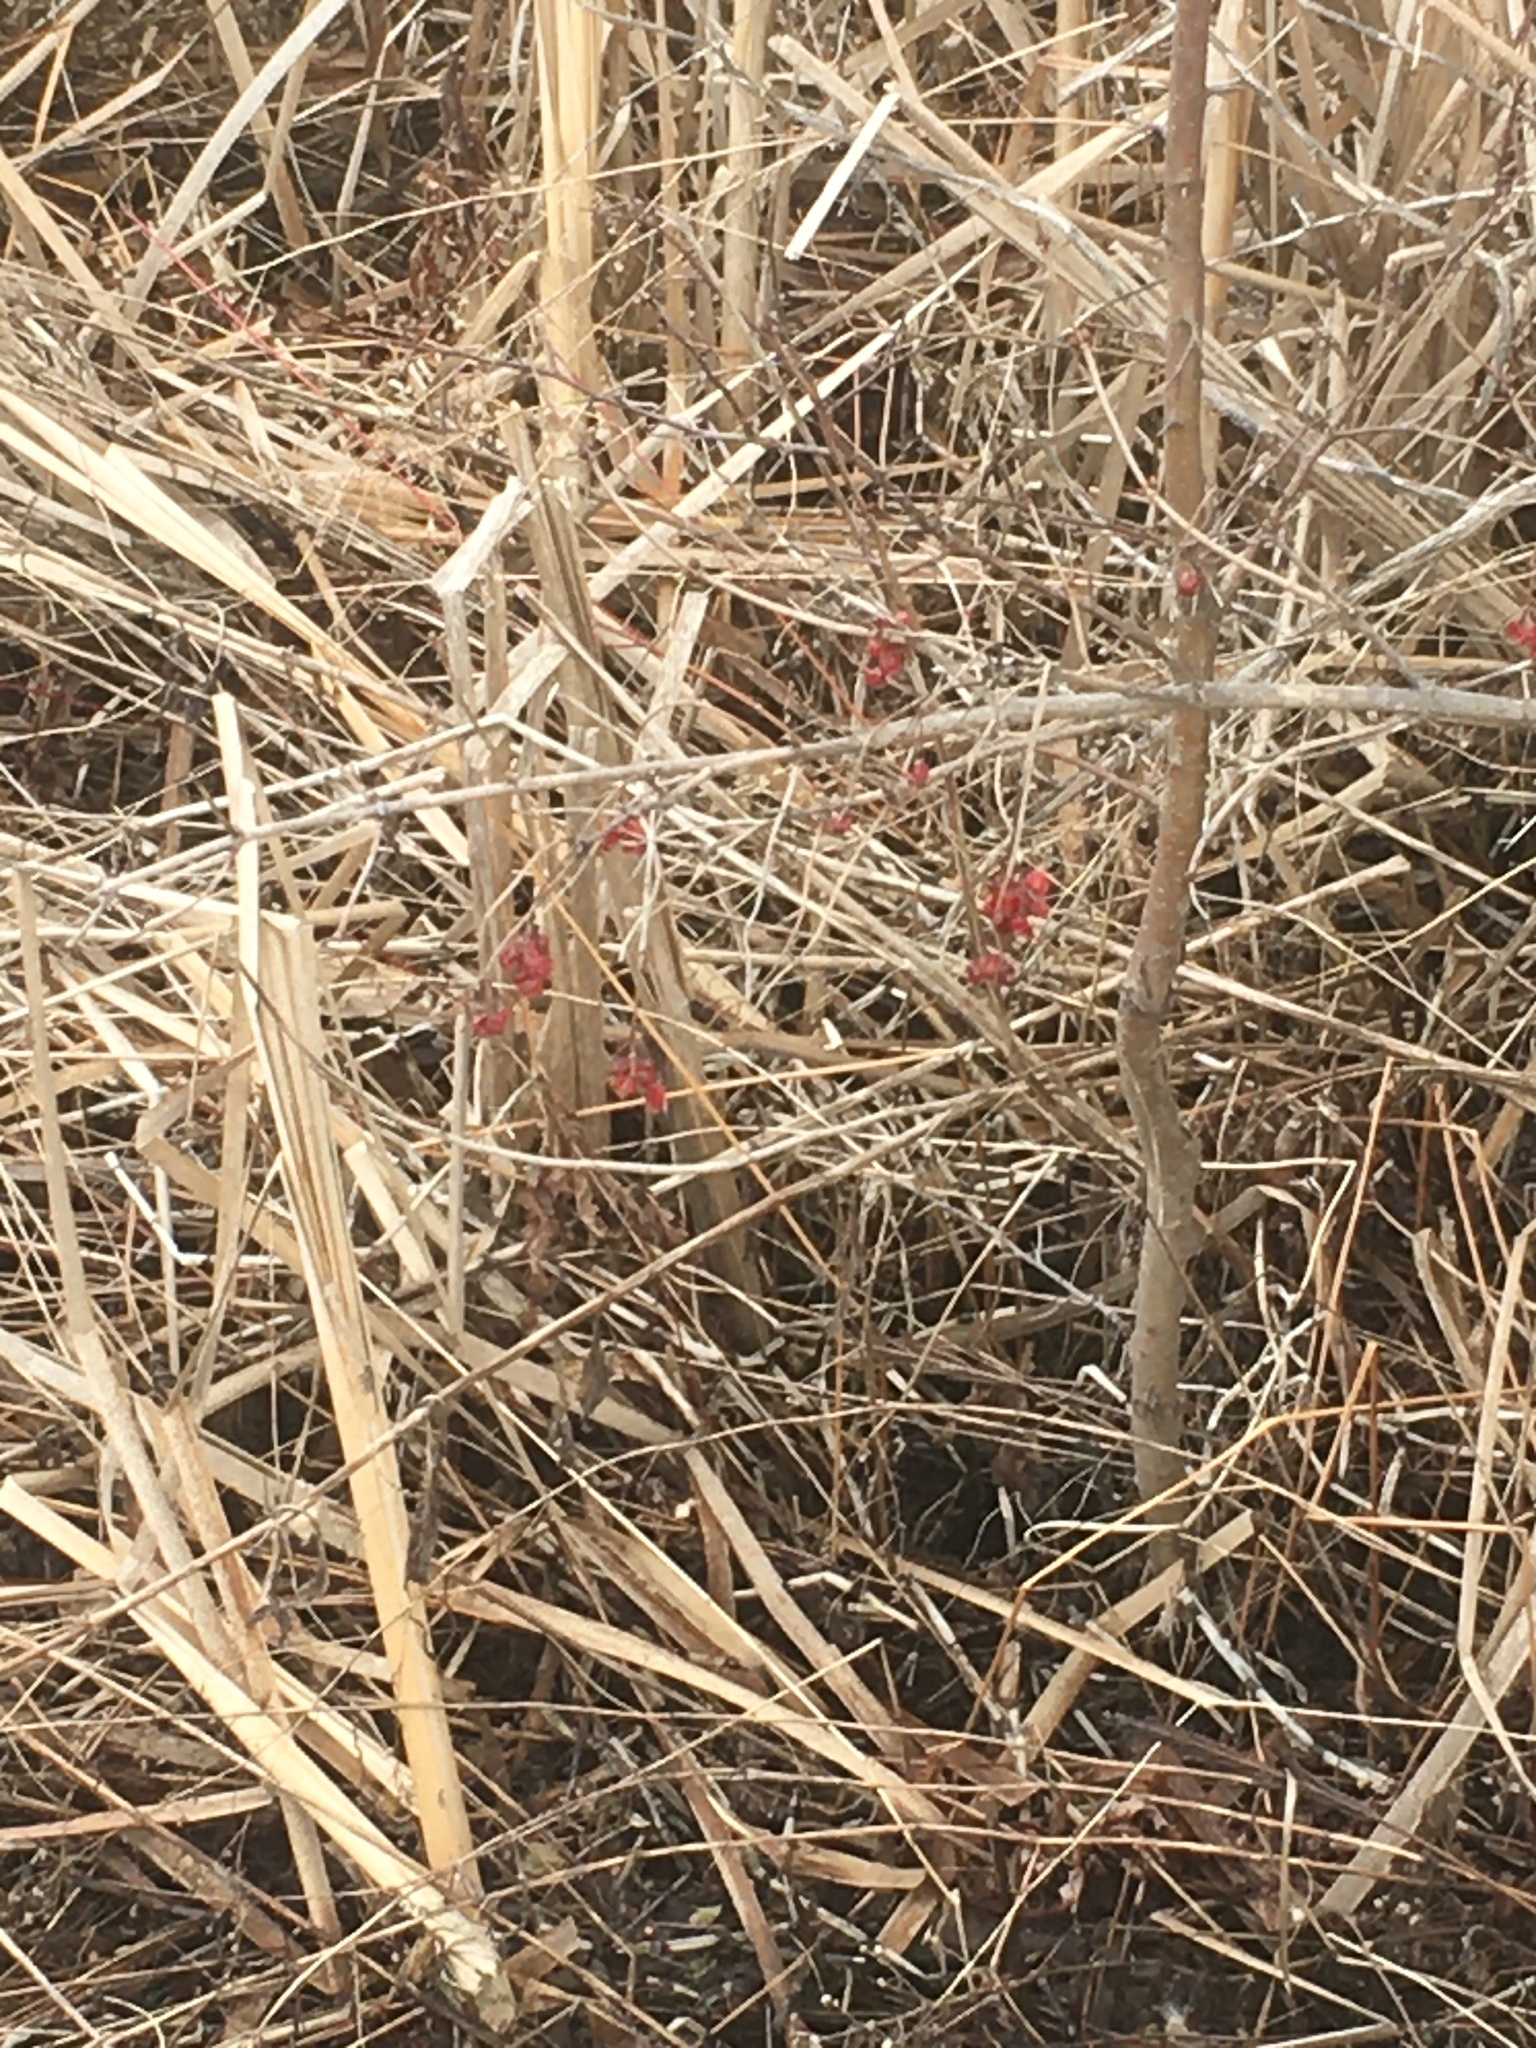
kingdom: Plantae
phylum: Tracheophyta
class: Magnoliopsida
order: Dipsacales
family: Viburnaceae
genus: Viburnum
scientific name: Viburnum opulus
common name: Guelder-rose
